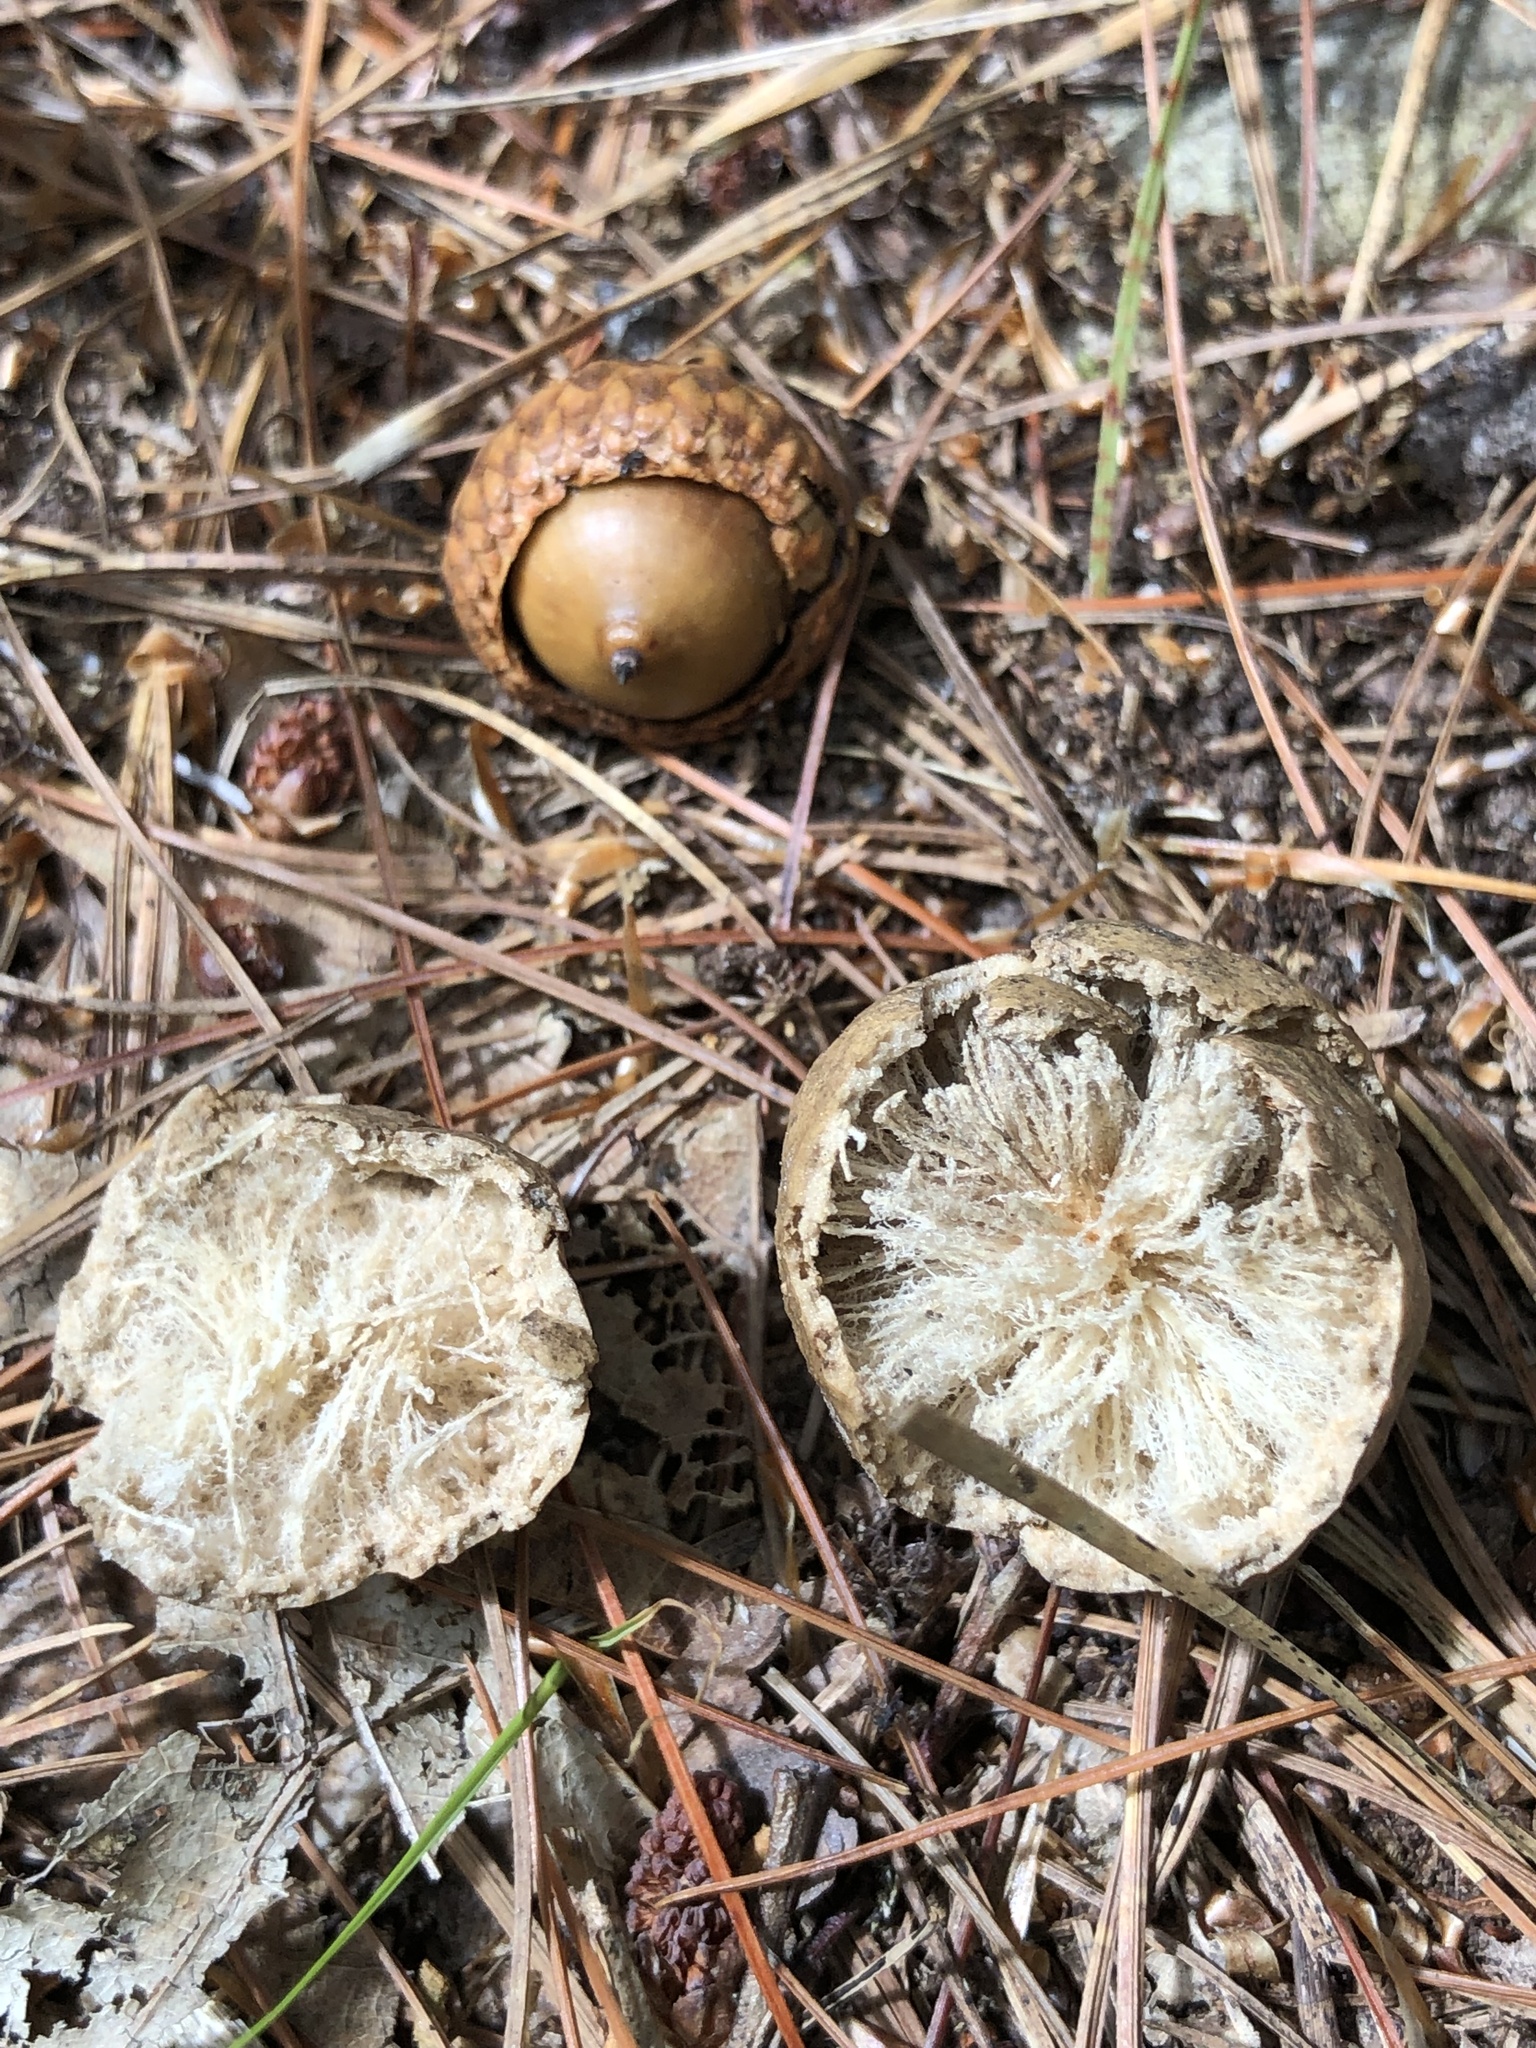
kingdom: Animalia
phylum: Arthropoda
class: Insecta
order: Hymenoptera
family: Cynipidae
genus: Amphibolips
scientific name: Amphibolips
